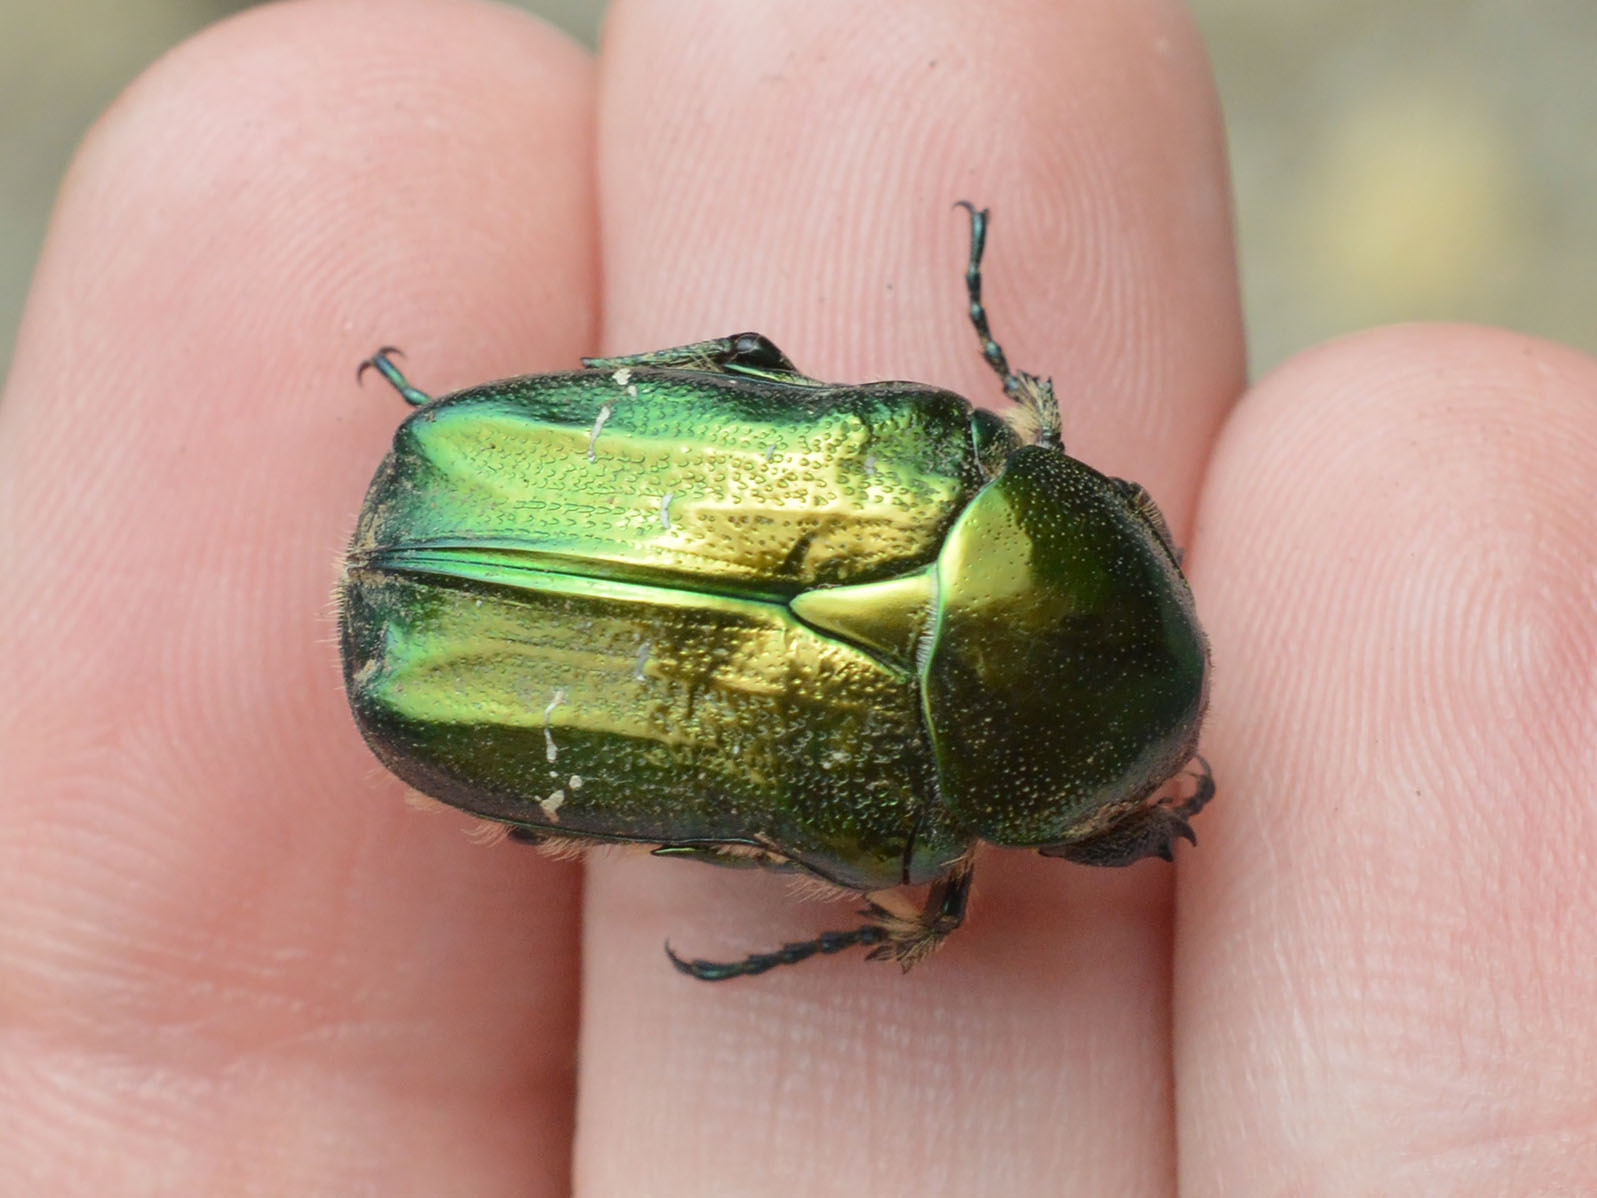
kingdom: Animalia
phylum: Arthropoda
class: Insecta
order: Coleoptera
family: Scarabaeidae
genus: Cetonia
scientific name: Cetonia aurata
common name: Rose chafer
